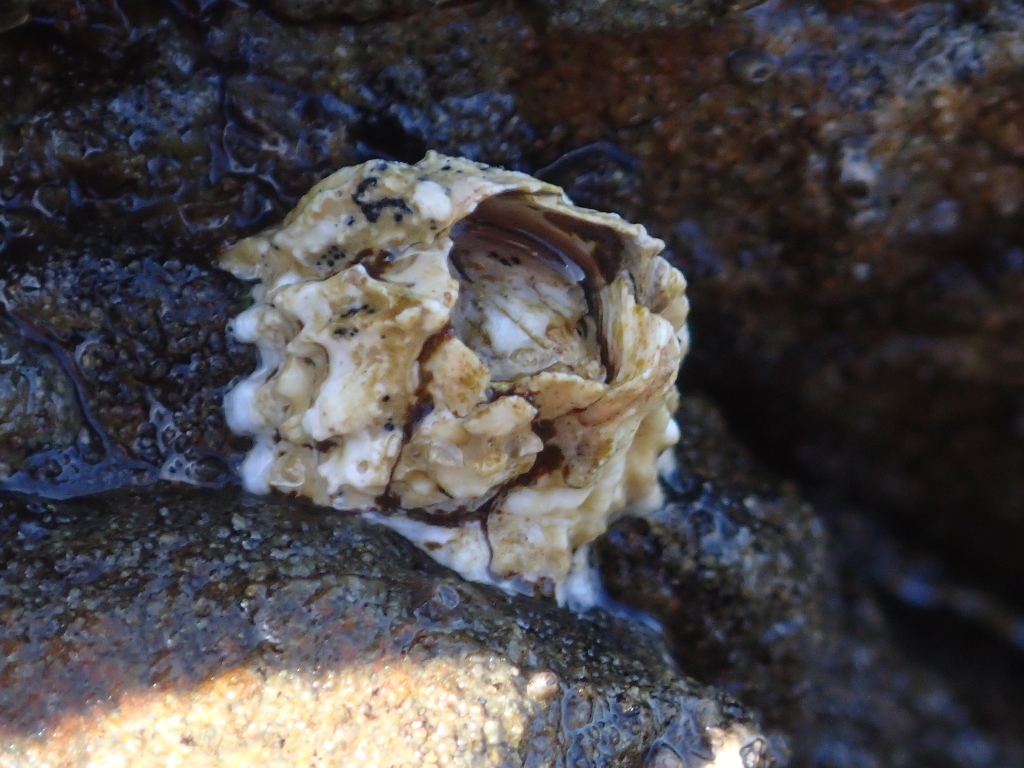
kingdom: Animalia
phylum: Arthropoda
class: Maxillopoda
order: Sessilia
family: Tetraclitidae
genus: Epopella
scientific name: Epopella plicata
